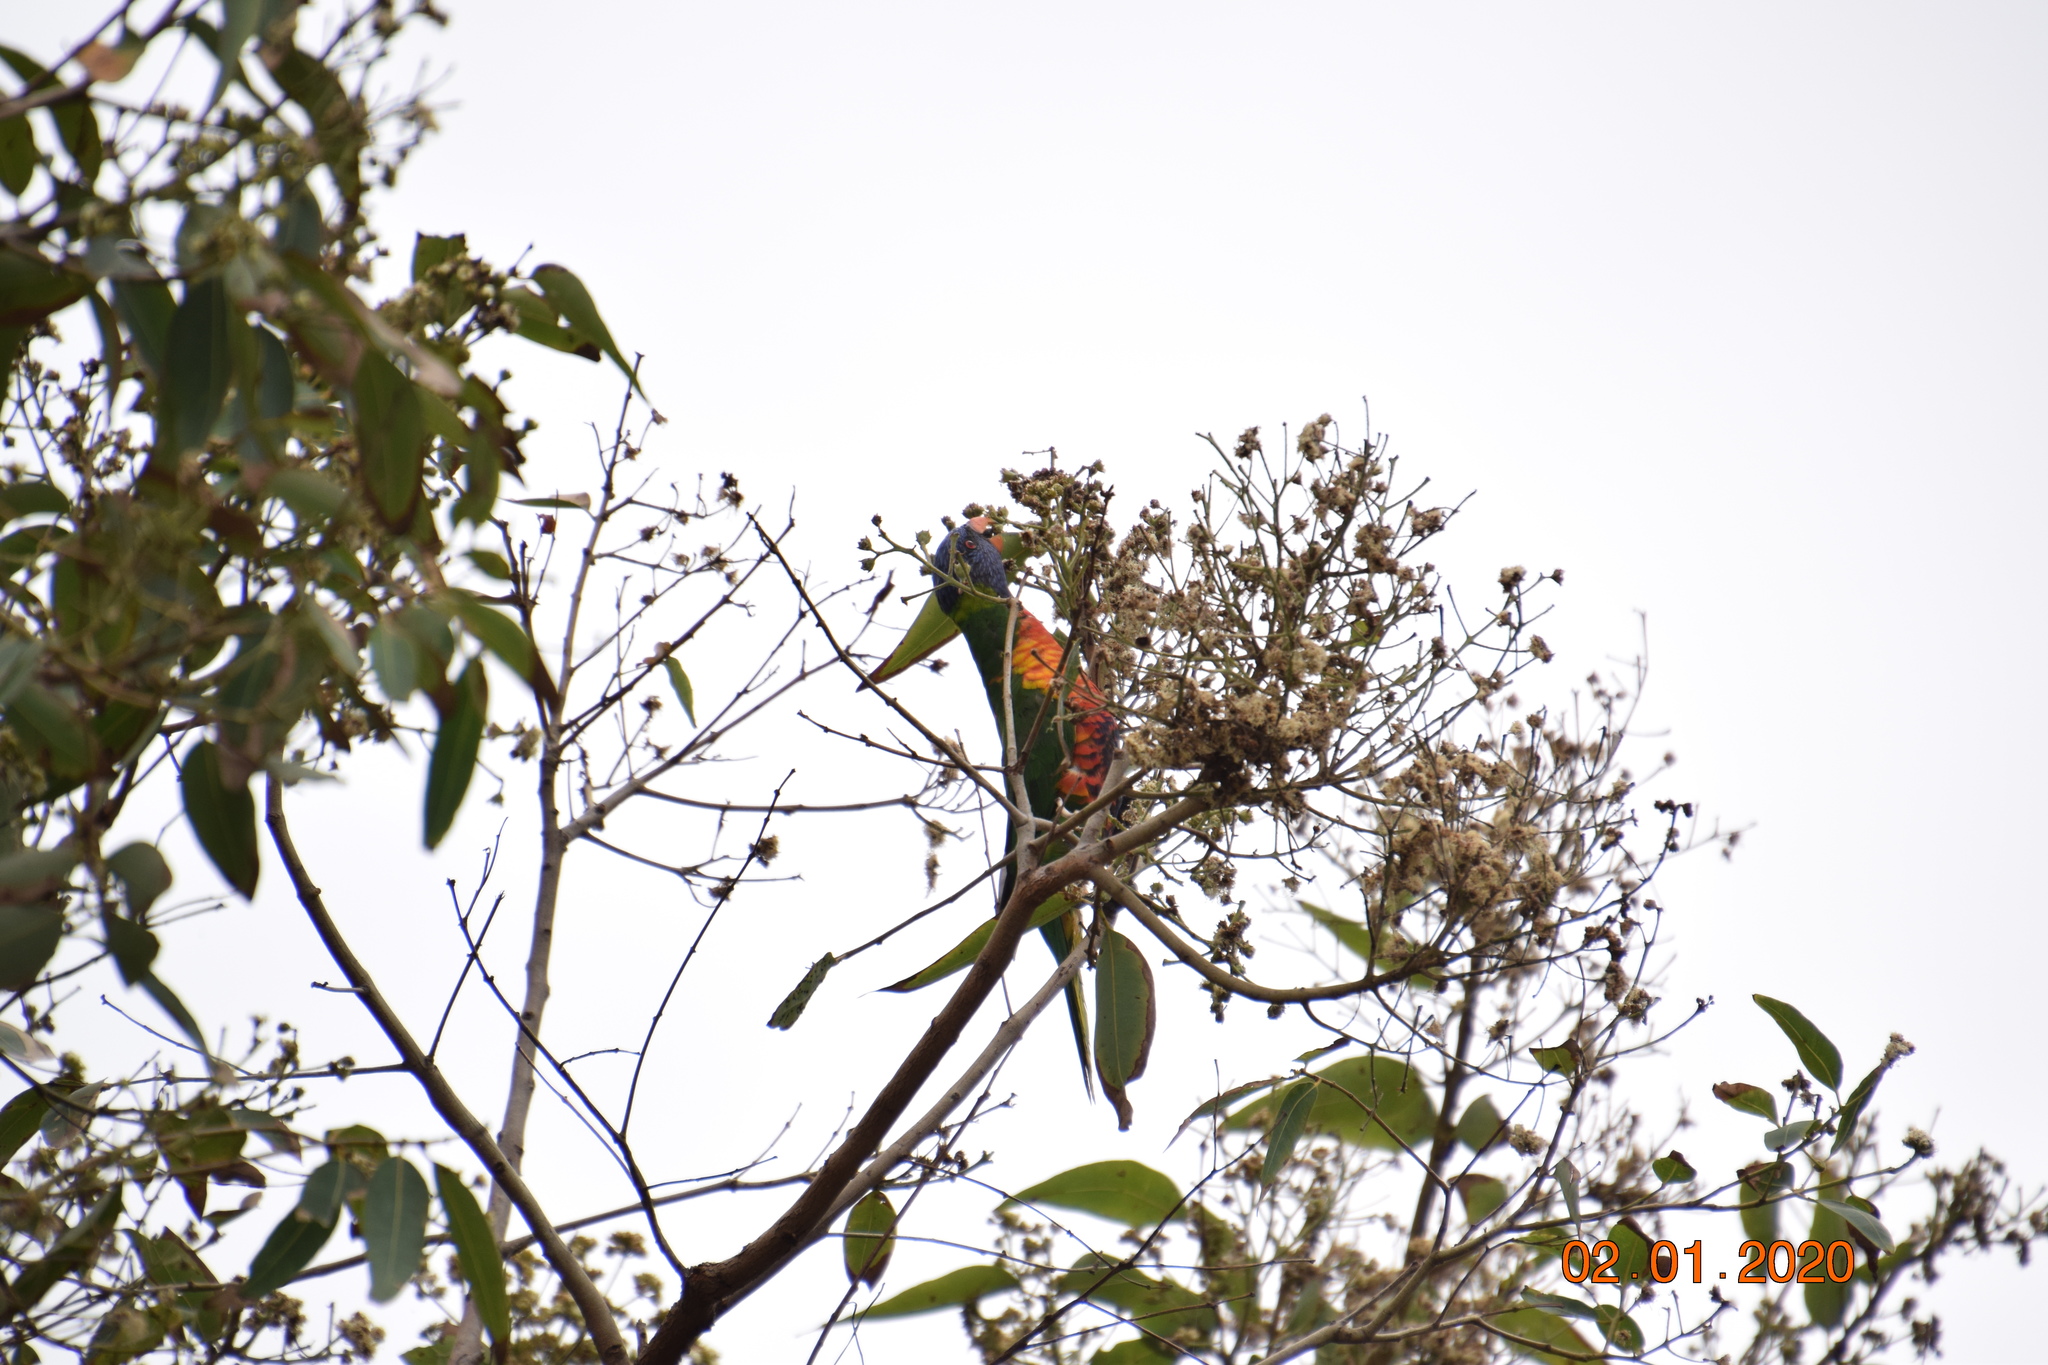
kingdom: Animalia
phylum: Chordata
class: Aves
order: Psittaciformes
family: Psittacidae
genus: Trichoglossus
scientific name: Trichoglossus haematodus
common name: Coconut lorikeet
